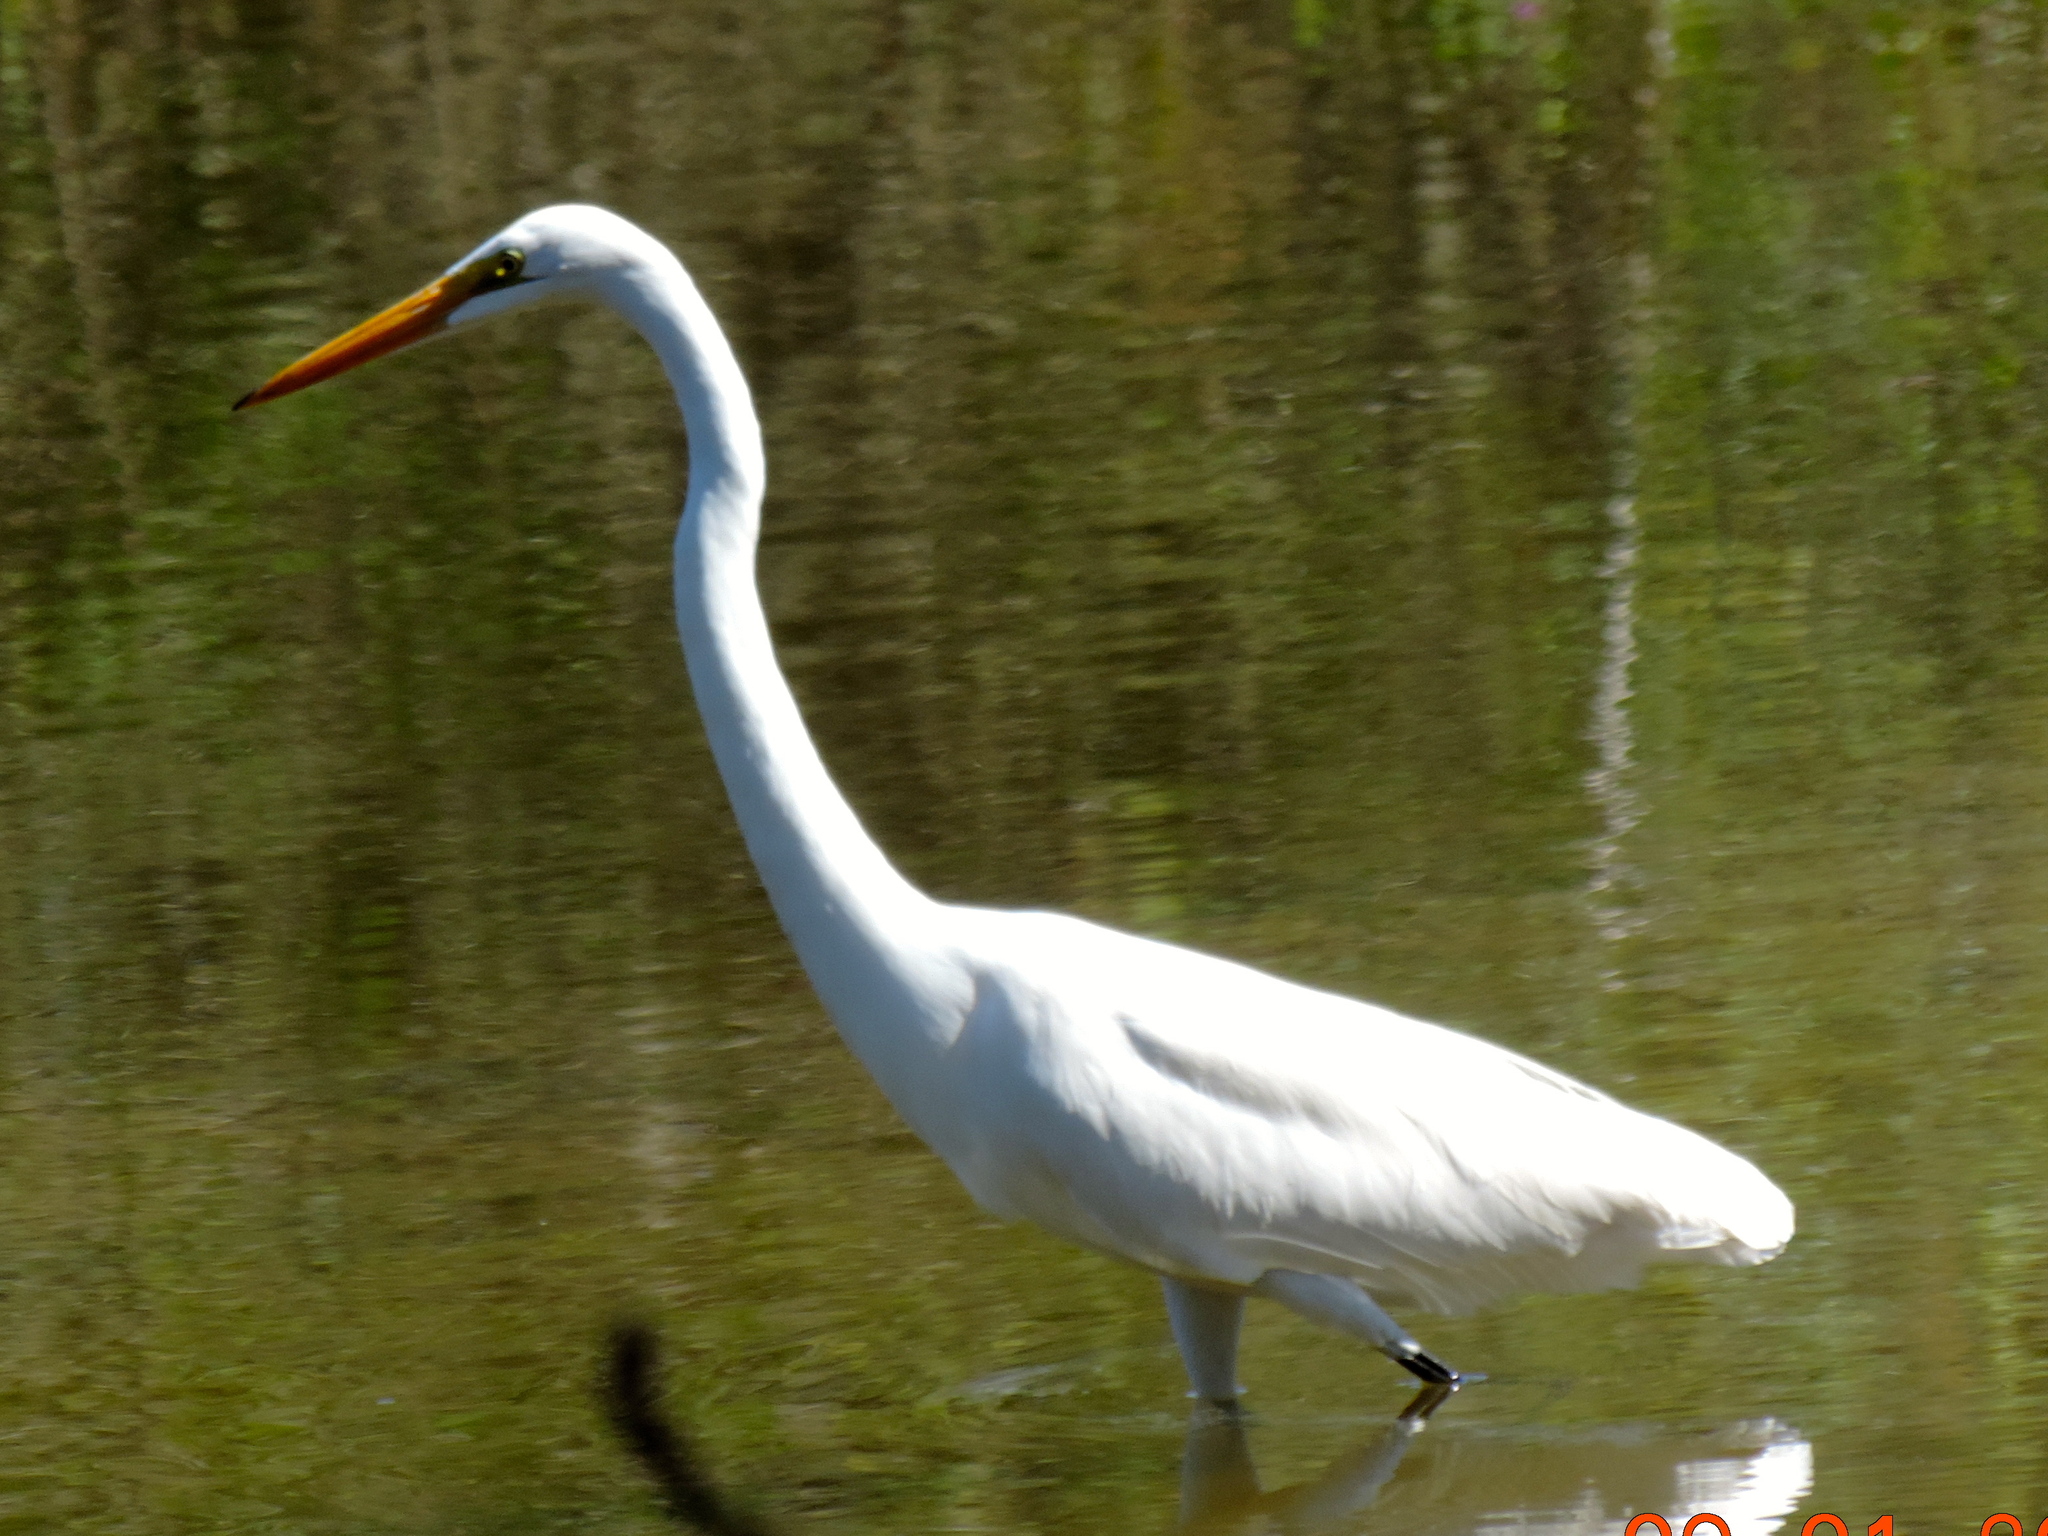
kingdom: Animalia
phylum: Chordata
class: Aves
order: Pelecaniformes
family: Ardeidae
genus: Ardea
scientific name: Ardea alba
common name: Great egret
